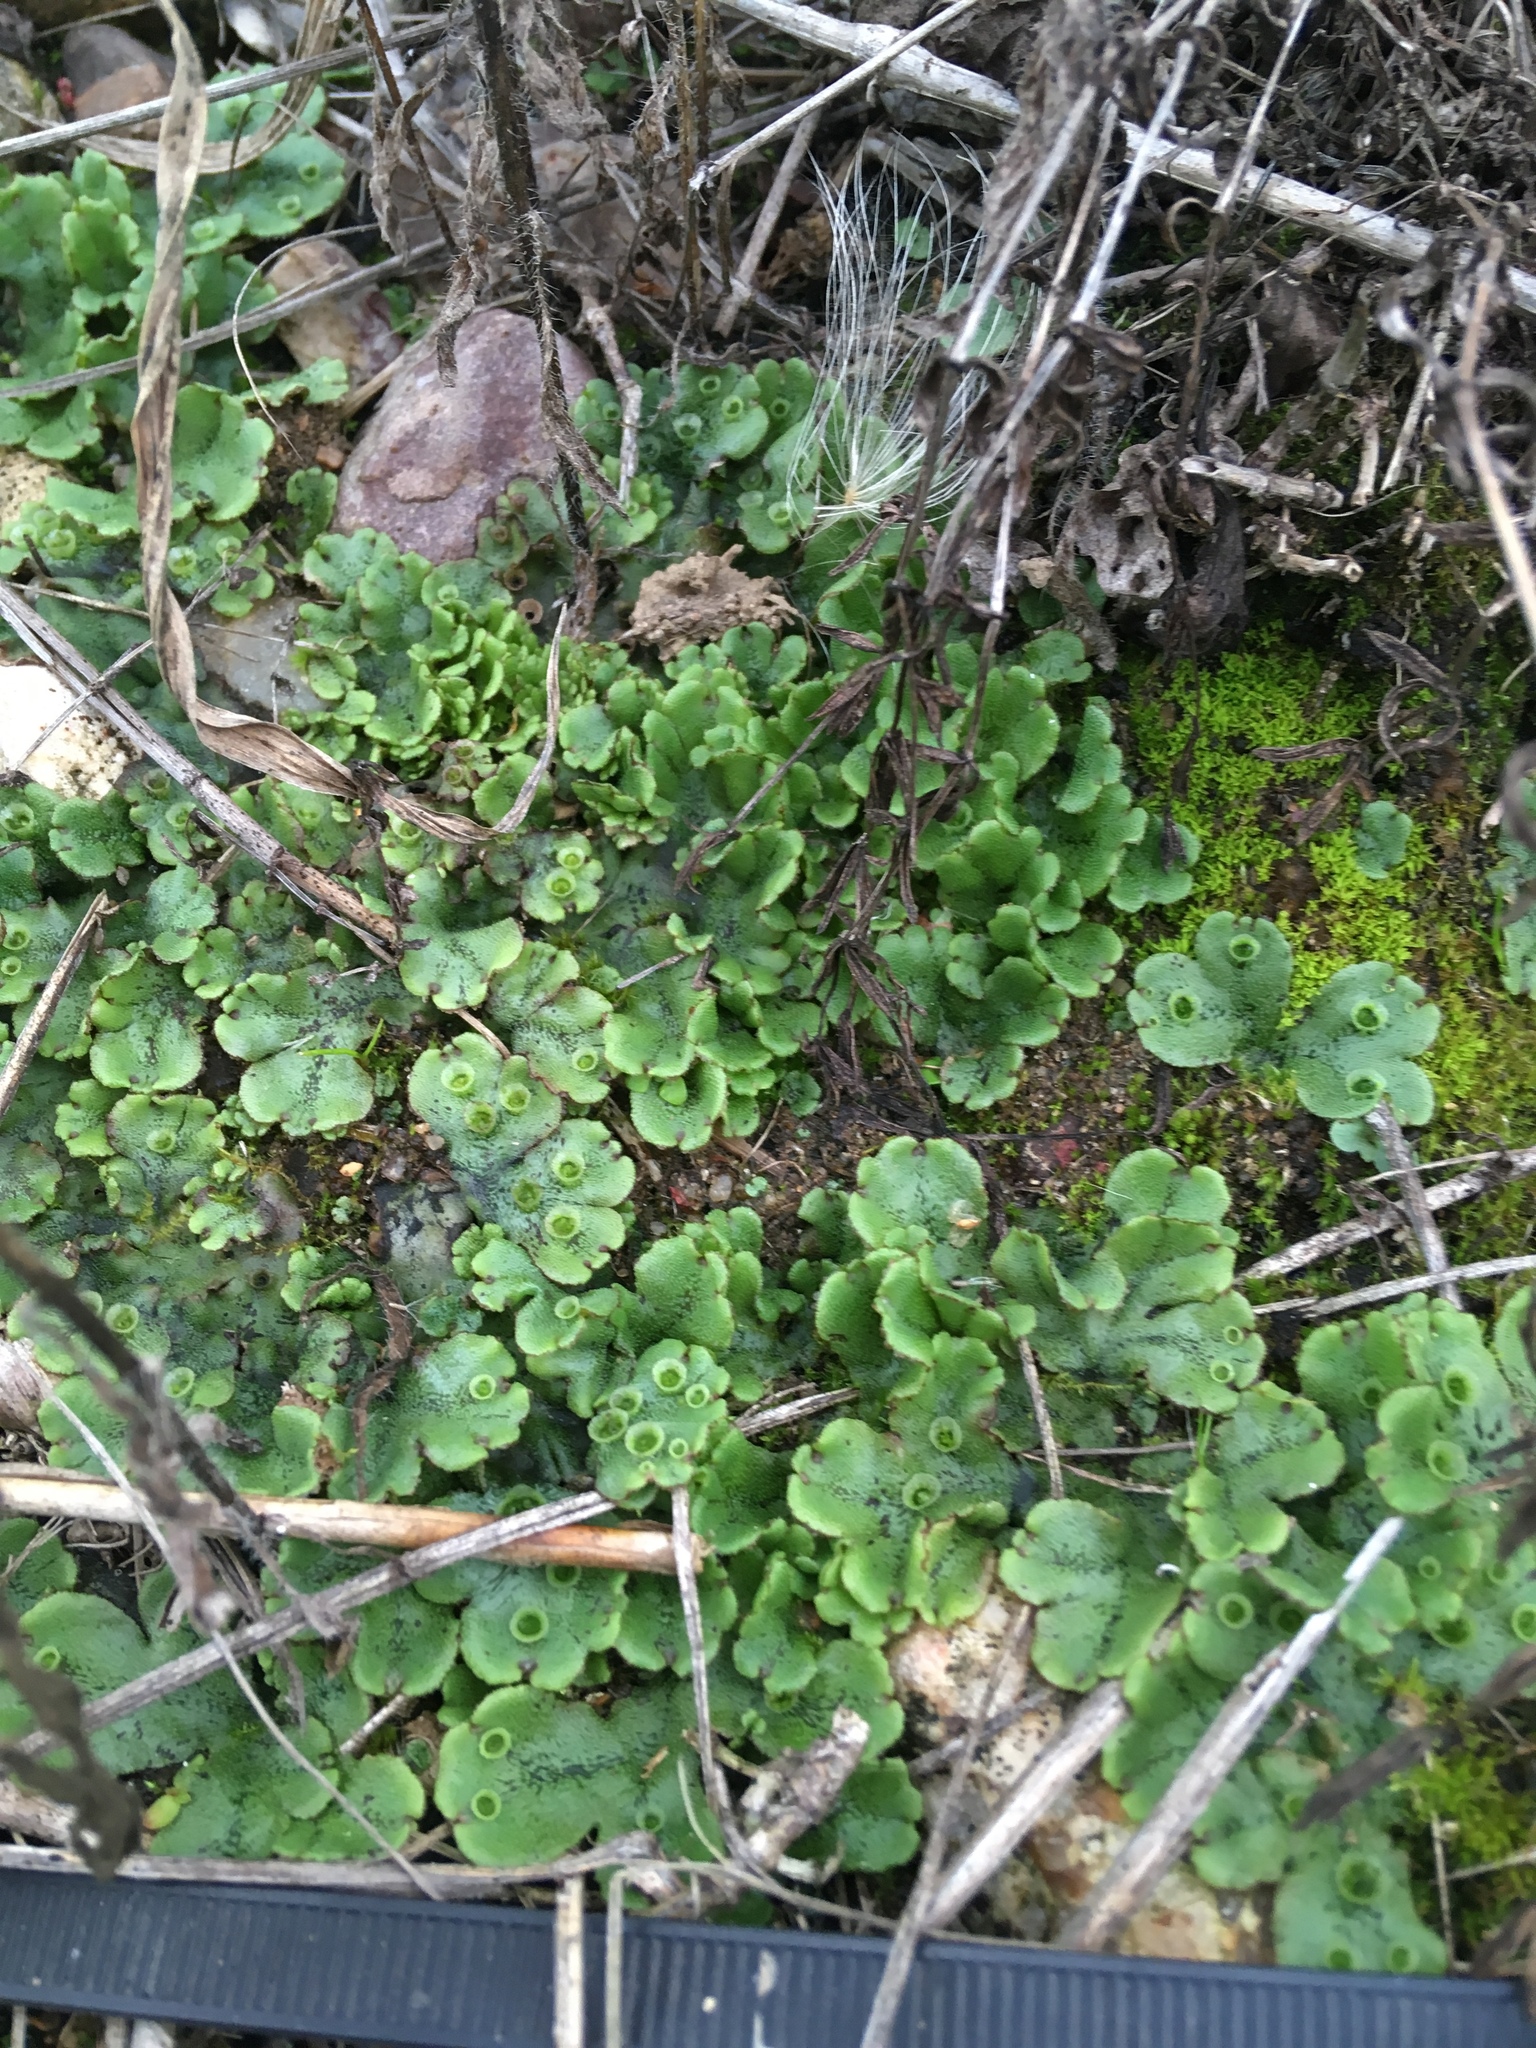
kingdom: Plantae
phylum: Marchantiophyta
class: Marchantiopsida
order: Marchantiales
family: Marchantiaceae
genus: Marchantia
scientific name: Marchantia polymorpha
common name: Common liverwort
